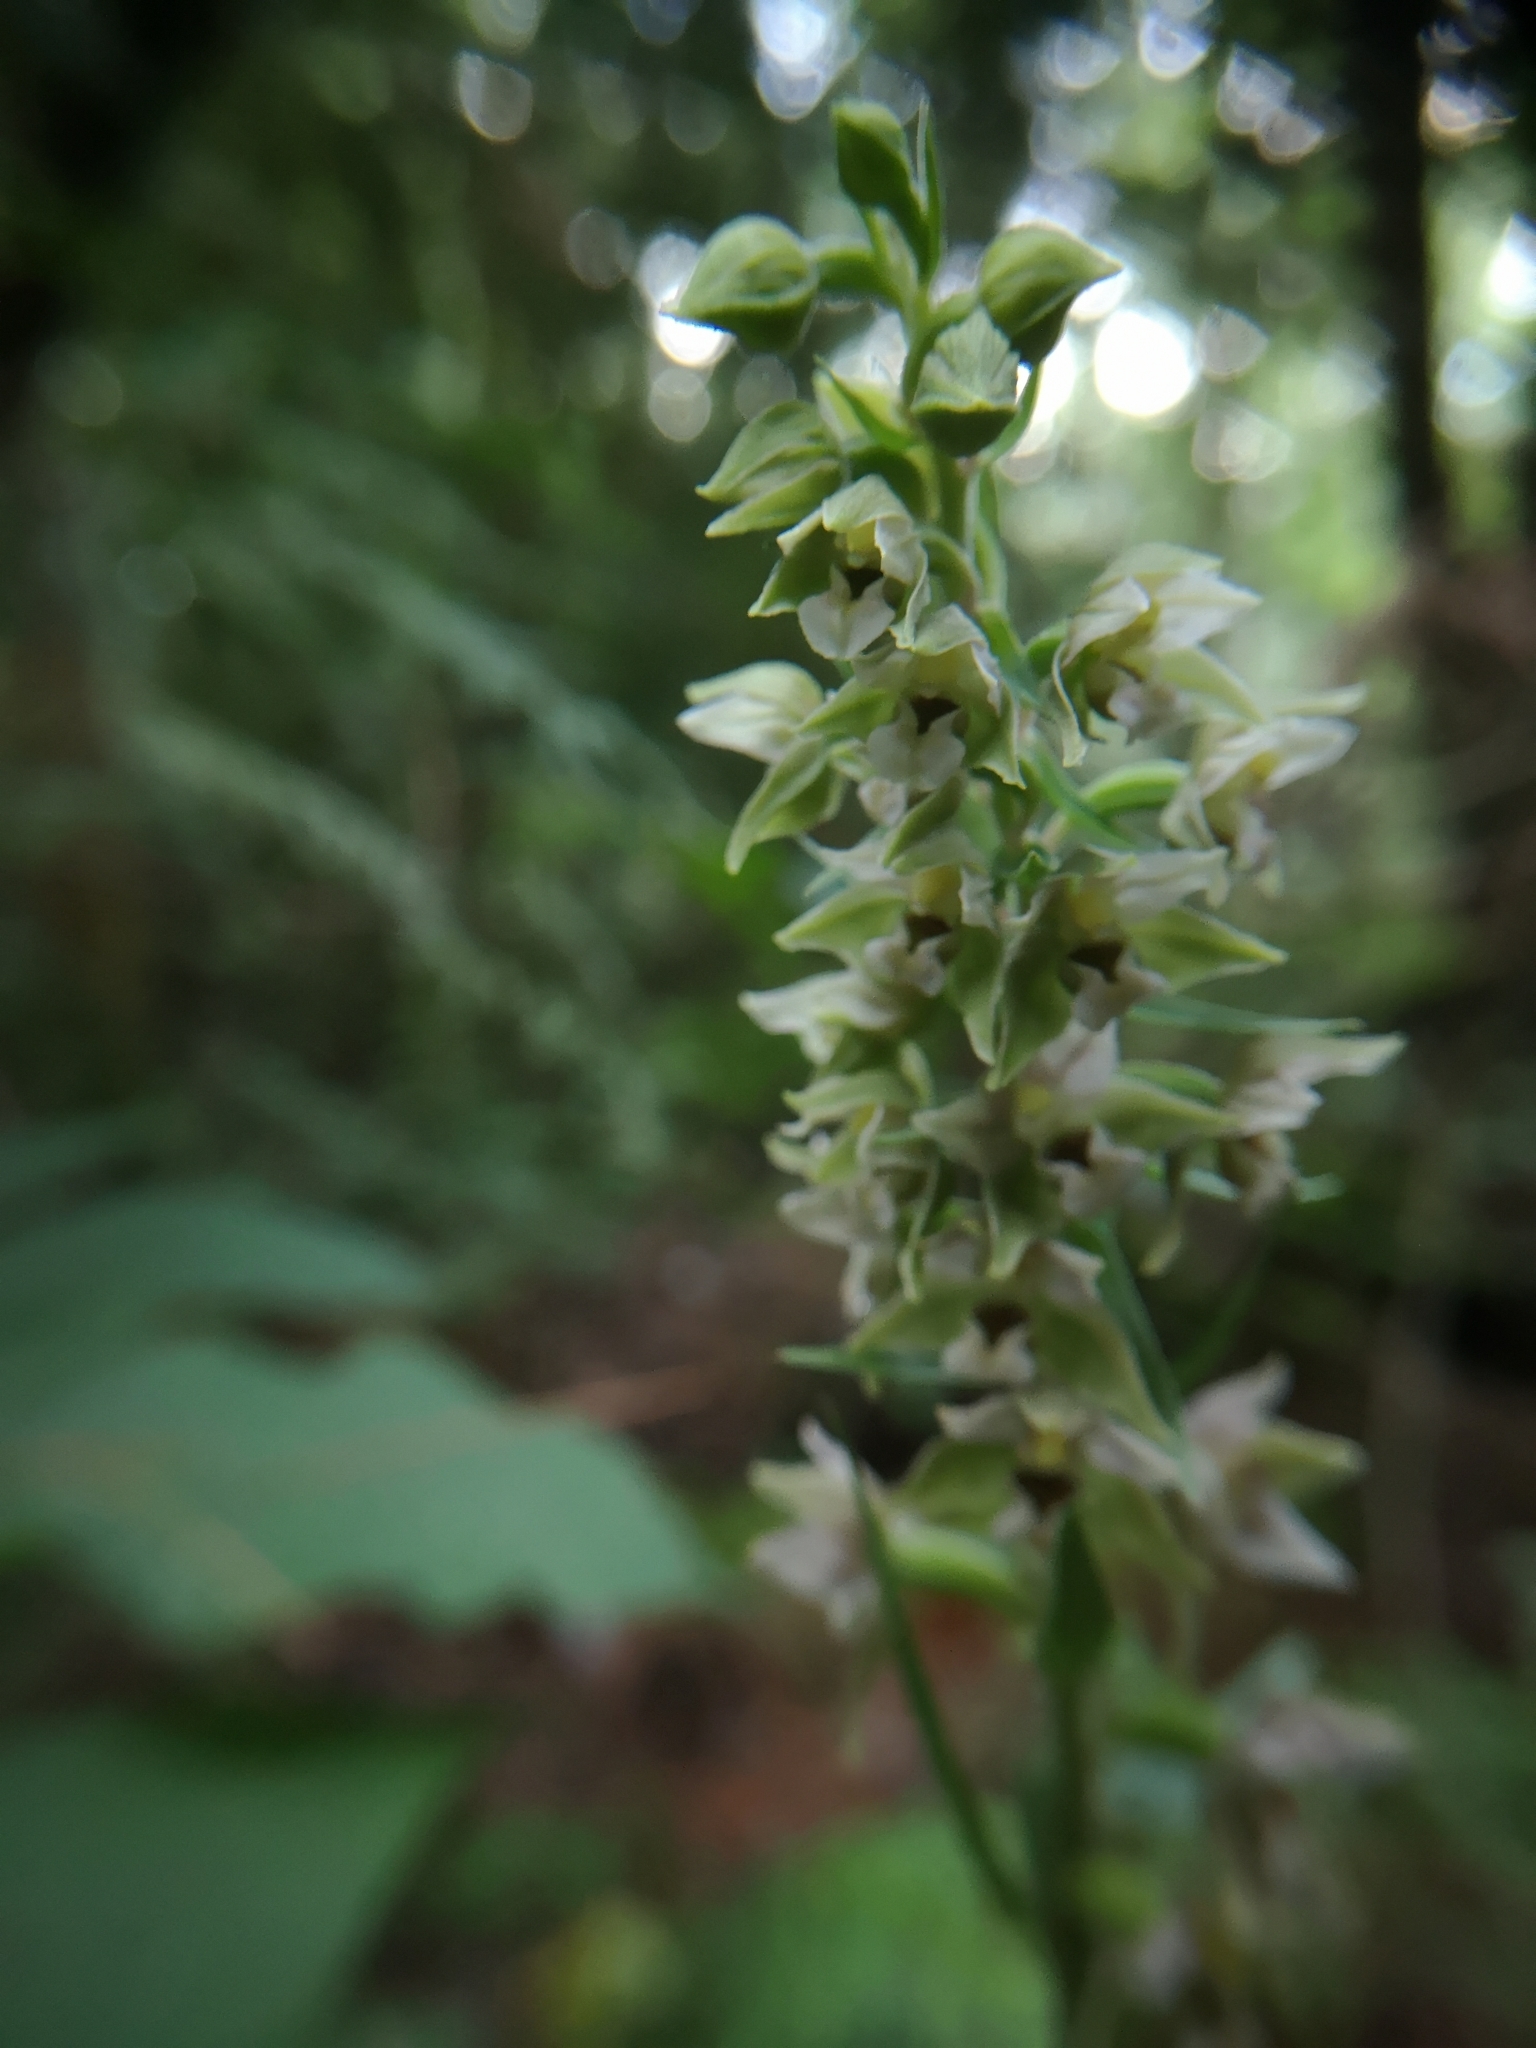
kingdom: Plantae
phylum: Tracheophyta
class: Liliopsida
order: Asparagales
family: Orchidaceae
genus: Epipactis
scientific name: Epipactis helleborine
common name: Broad-leaved helleborine
